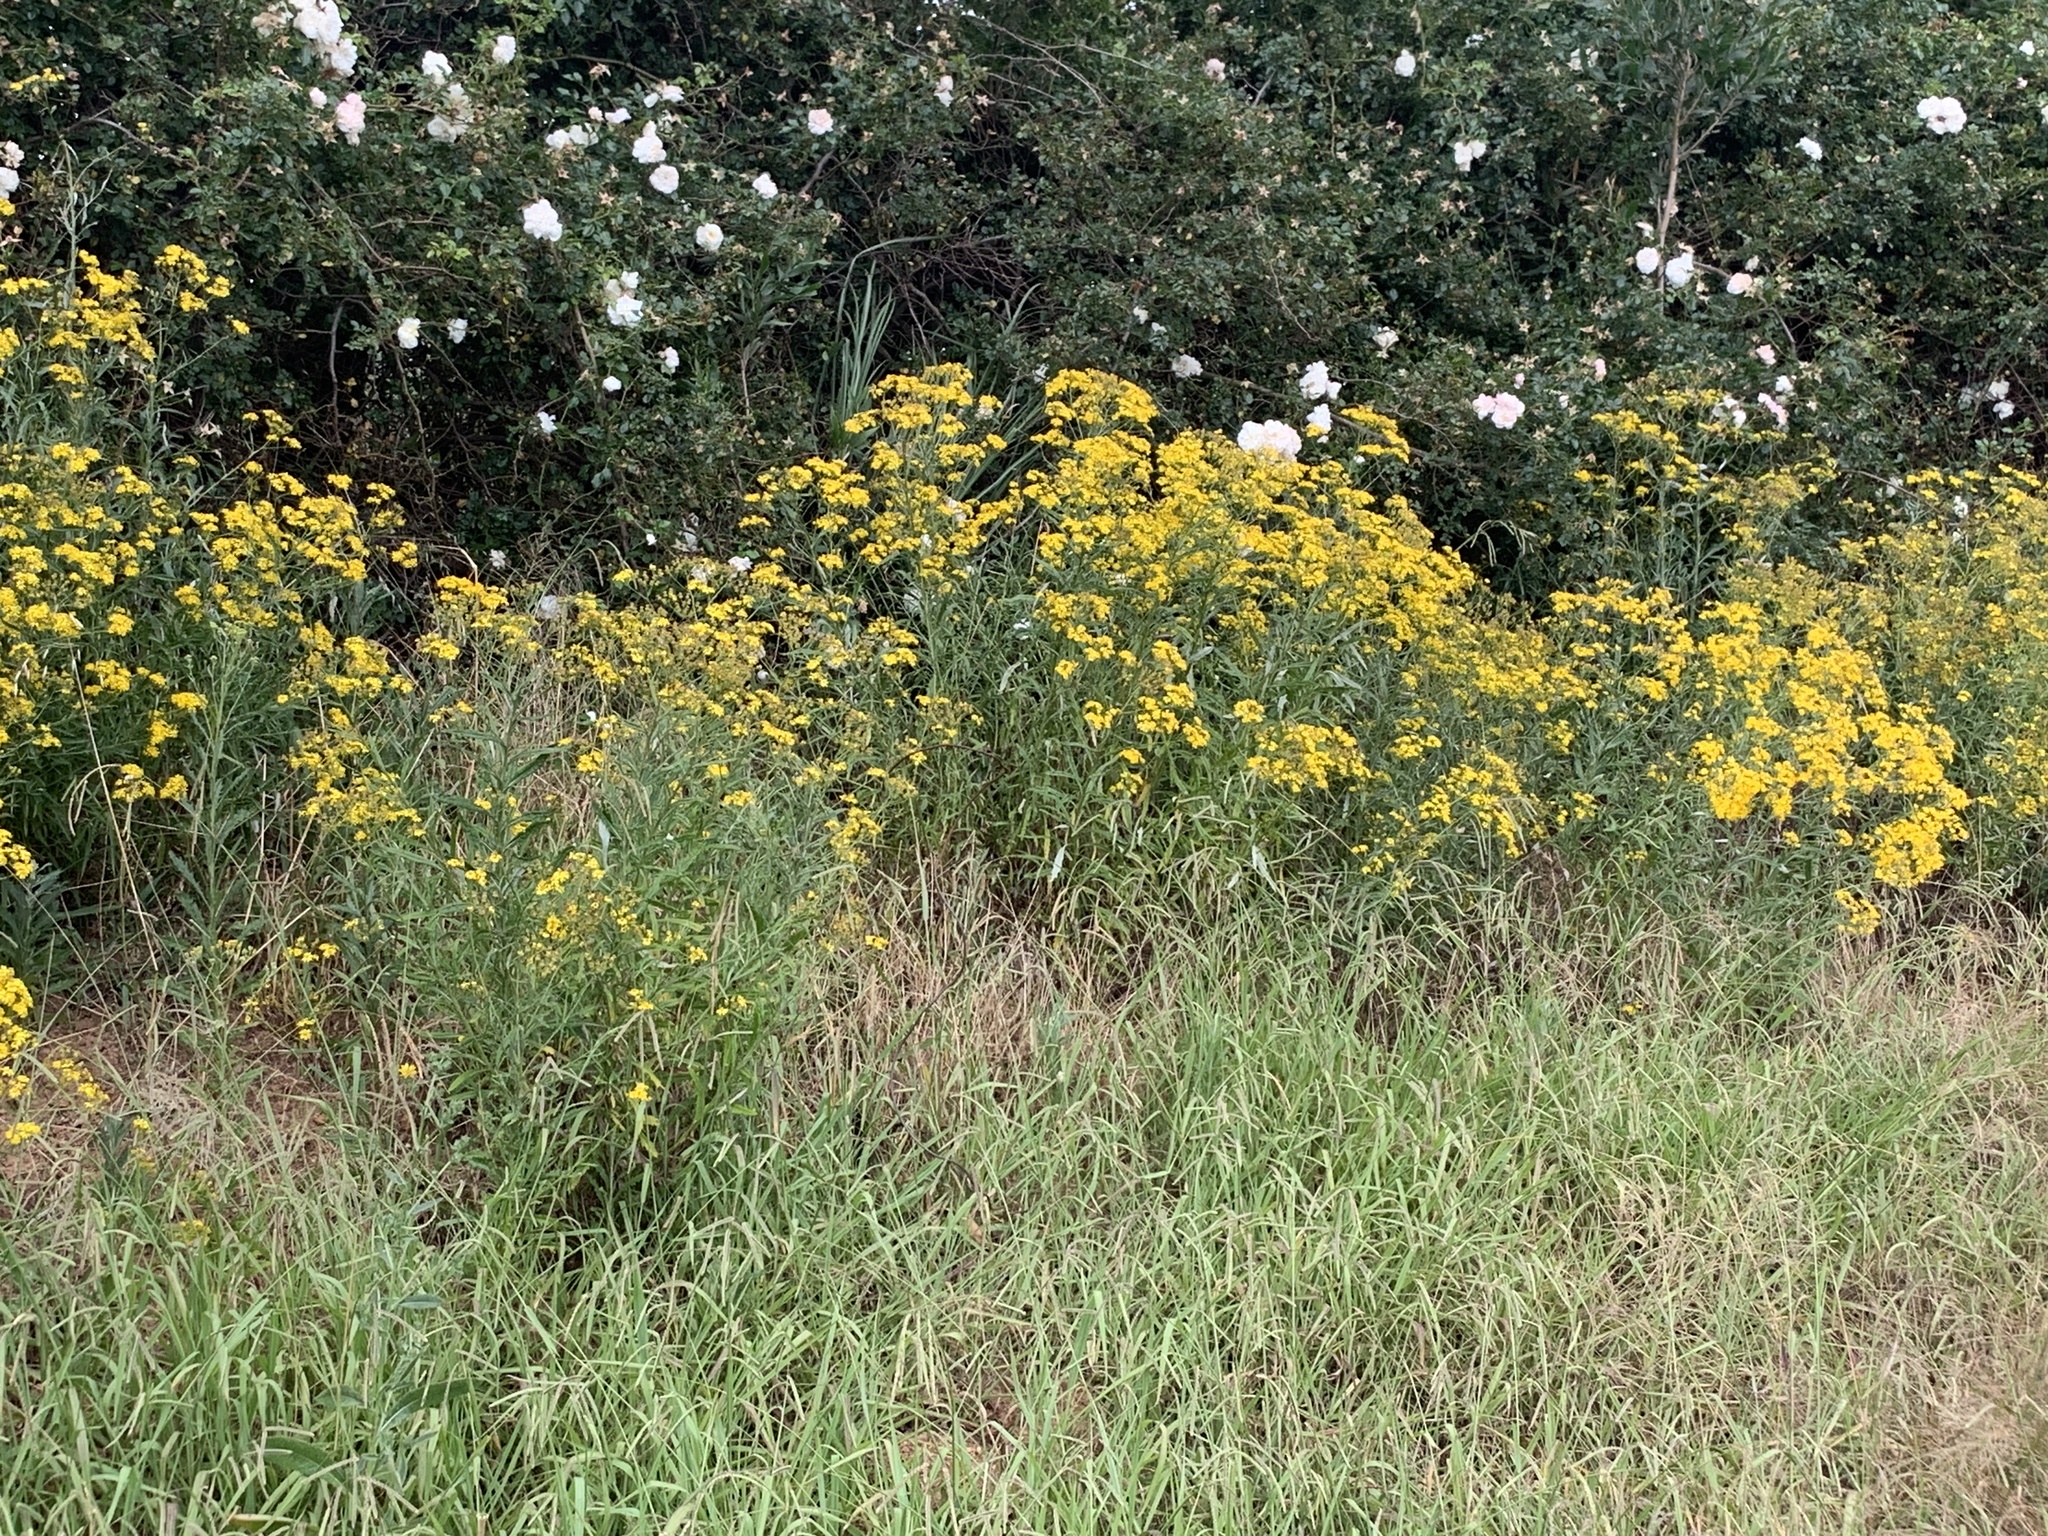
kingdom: Plantae
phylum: Tracheophyta
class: Magnoliopsida
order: Asterales
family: Asteraceae
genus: Senecio
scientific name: Senecio pterophorus
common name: Shoddy ragwort
